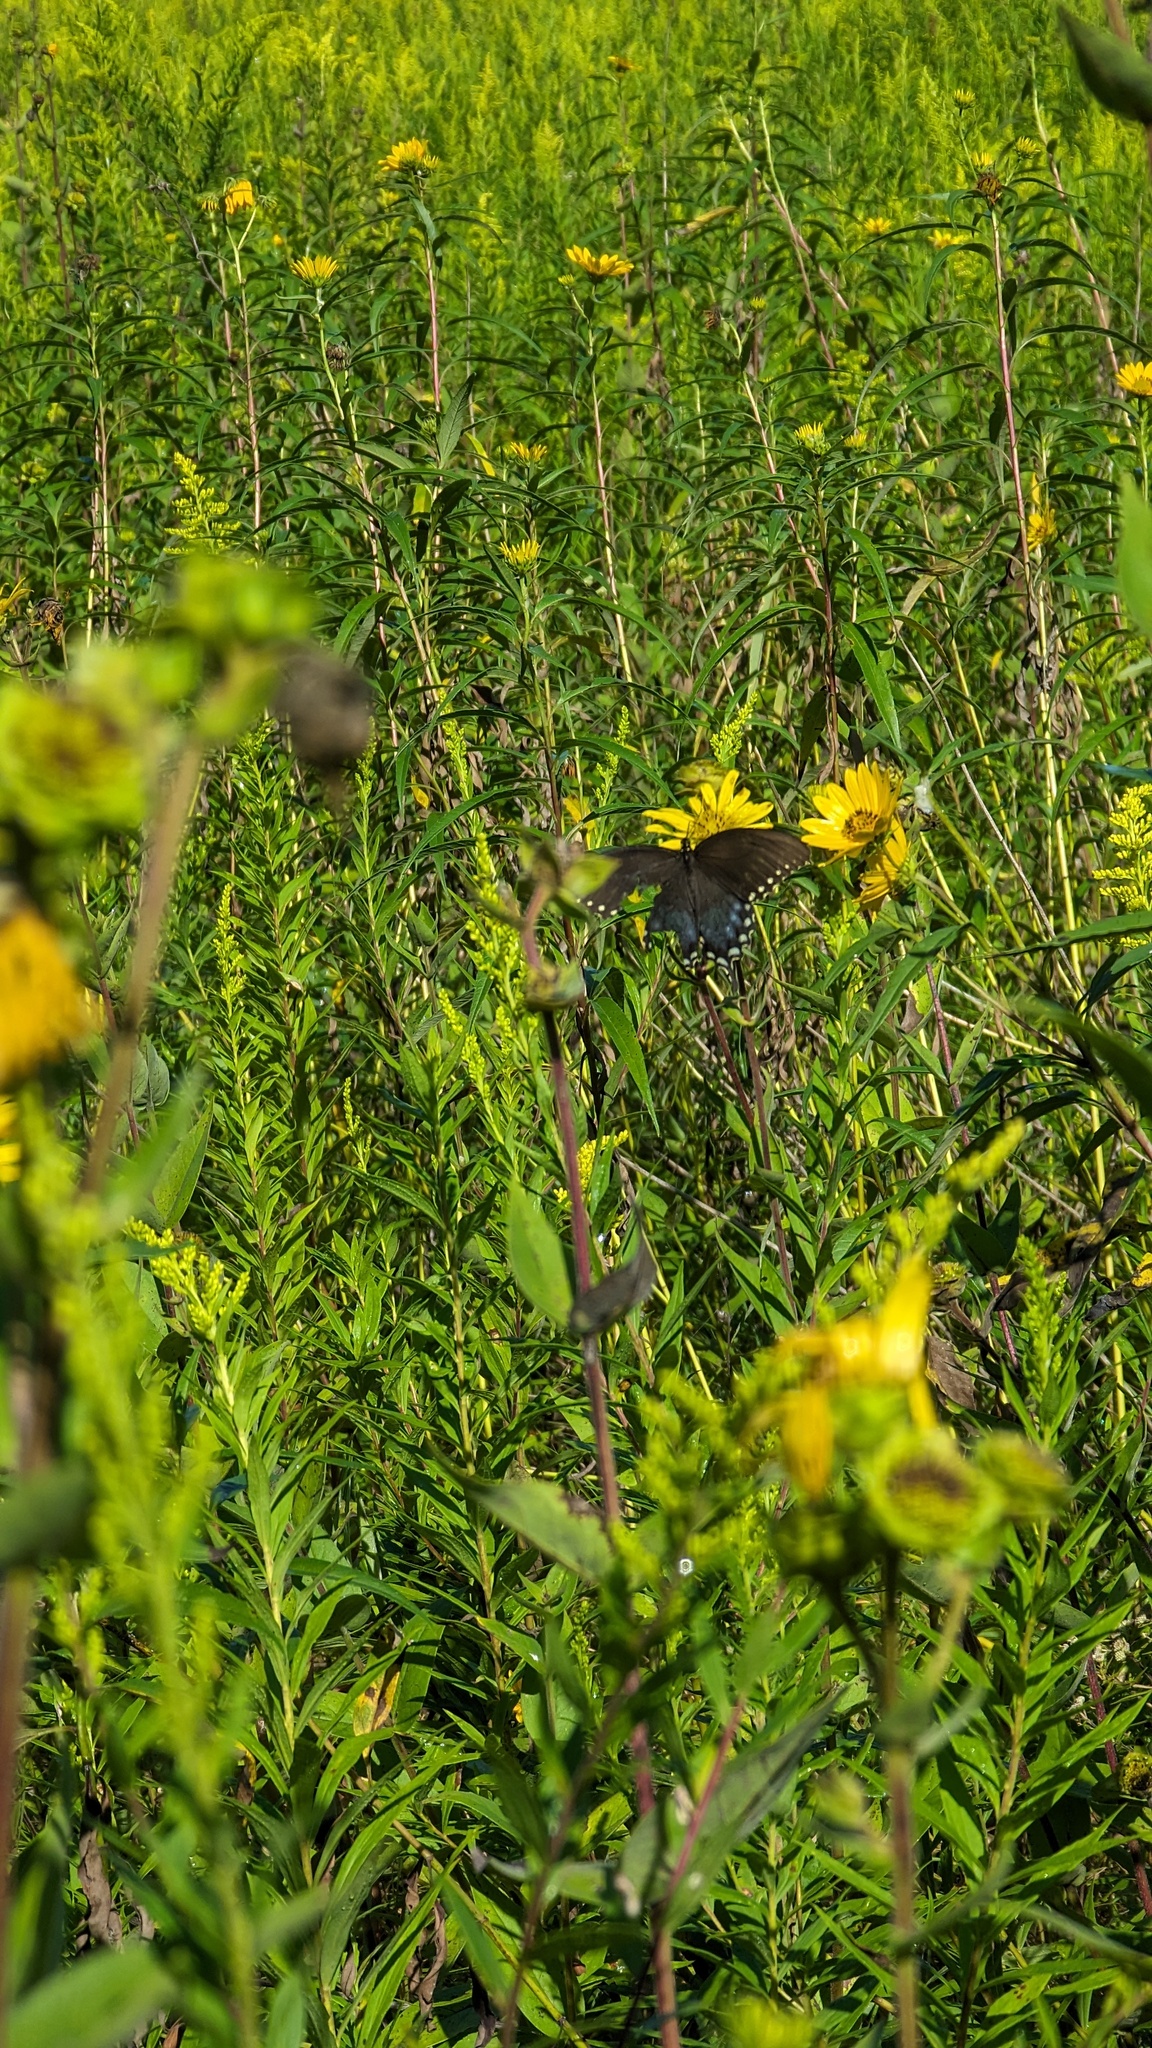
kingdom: Animalia
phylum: Arthropoda
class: Insecta
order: Lepidoptera
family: Papilionidae
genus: Papilio
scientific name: Papilio troilus
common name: Spicebush swallowtail
